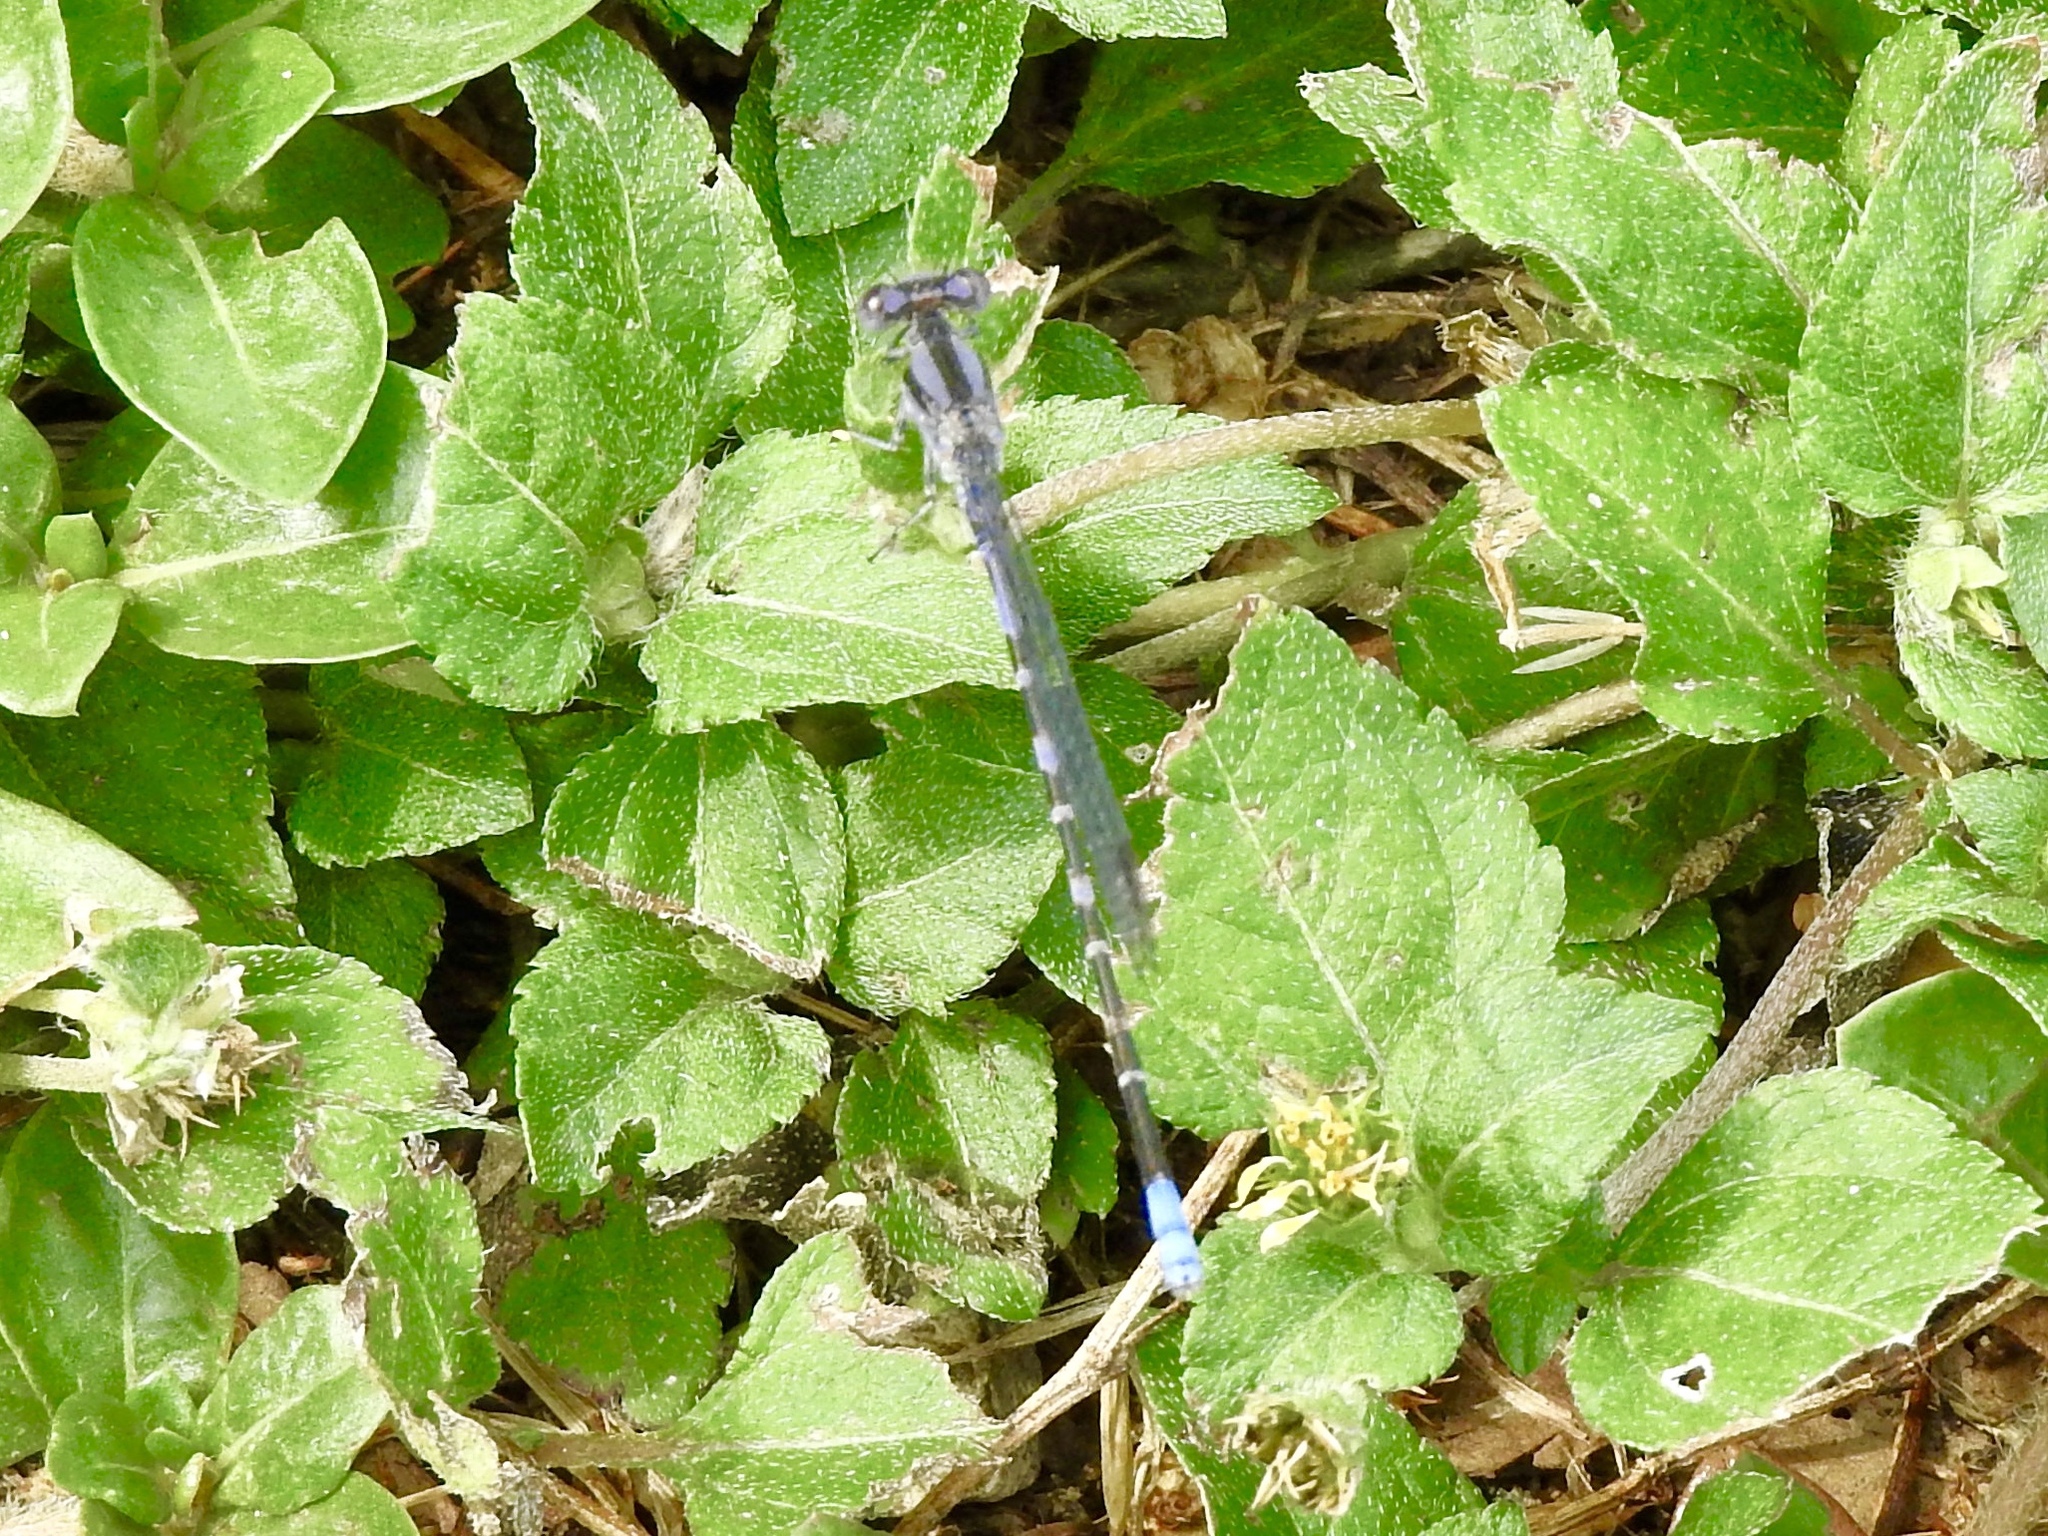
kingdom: Animalia
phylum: Arthropoda
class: Insecta
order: Odonata
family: Coenagrionidae
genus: Argia
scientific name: Argia immunda
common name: Kiowa dancer
